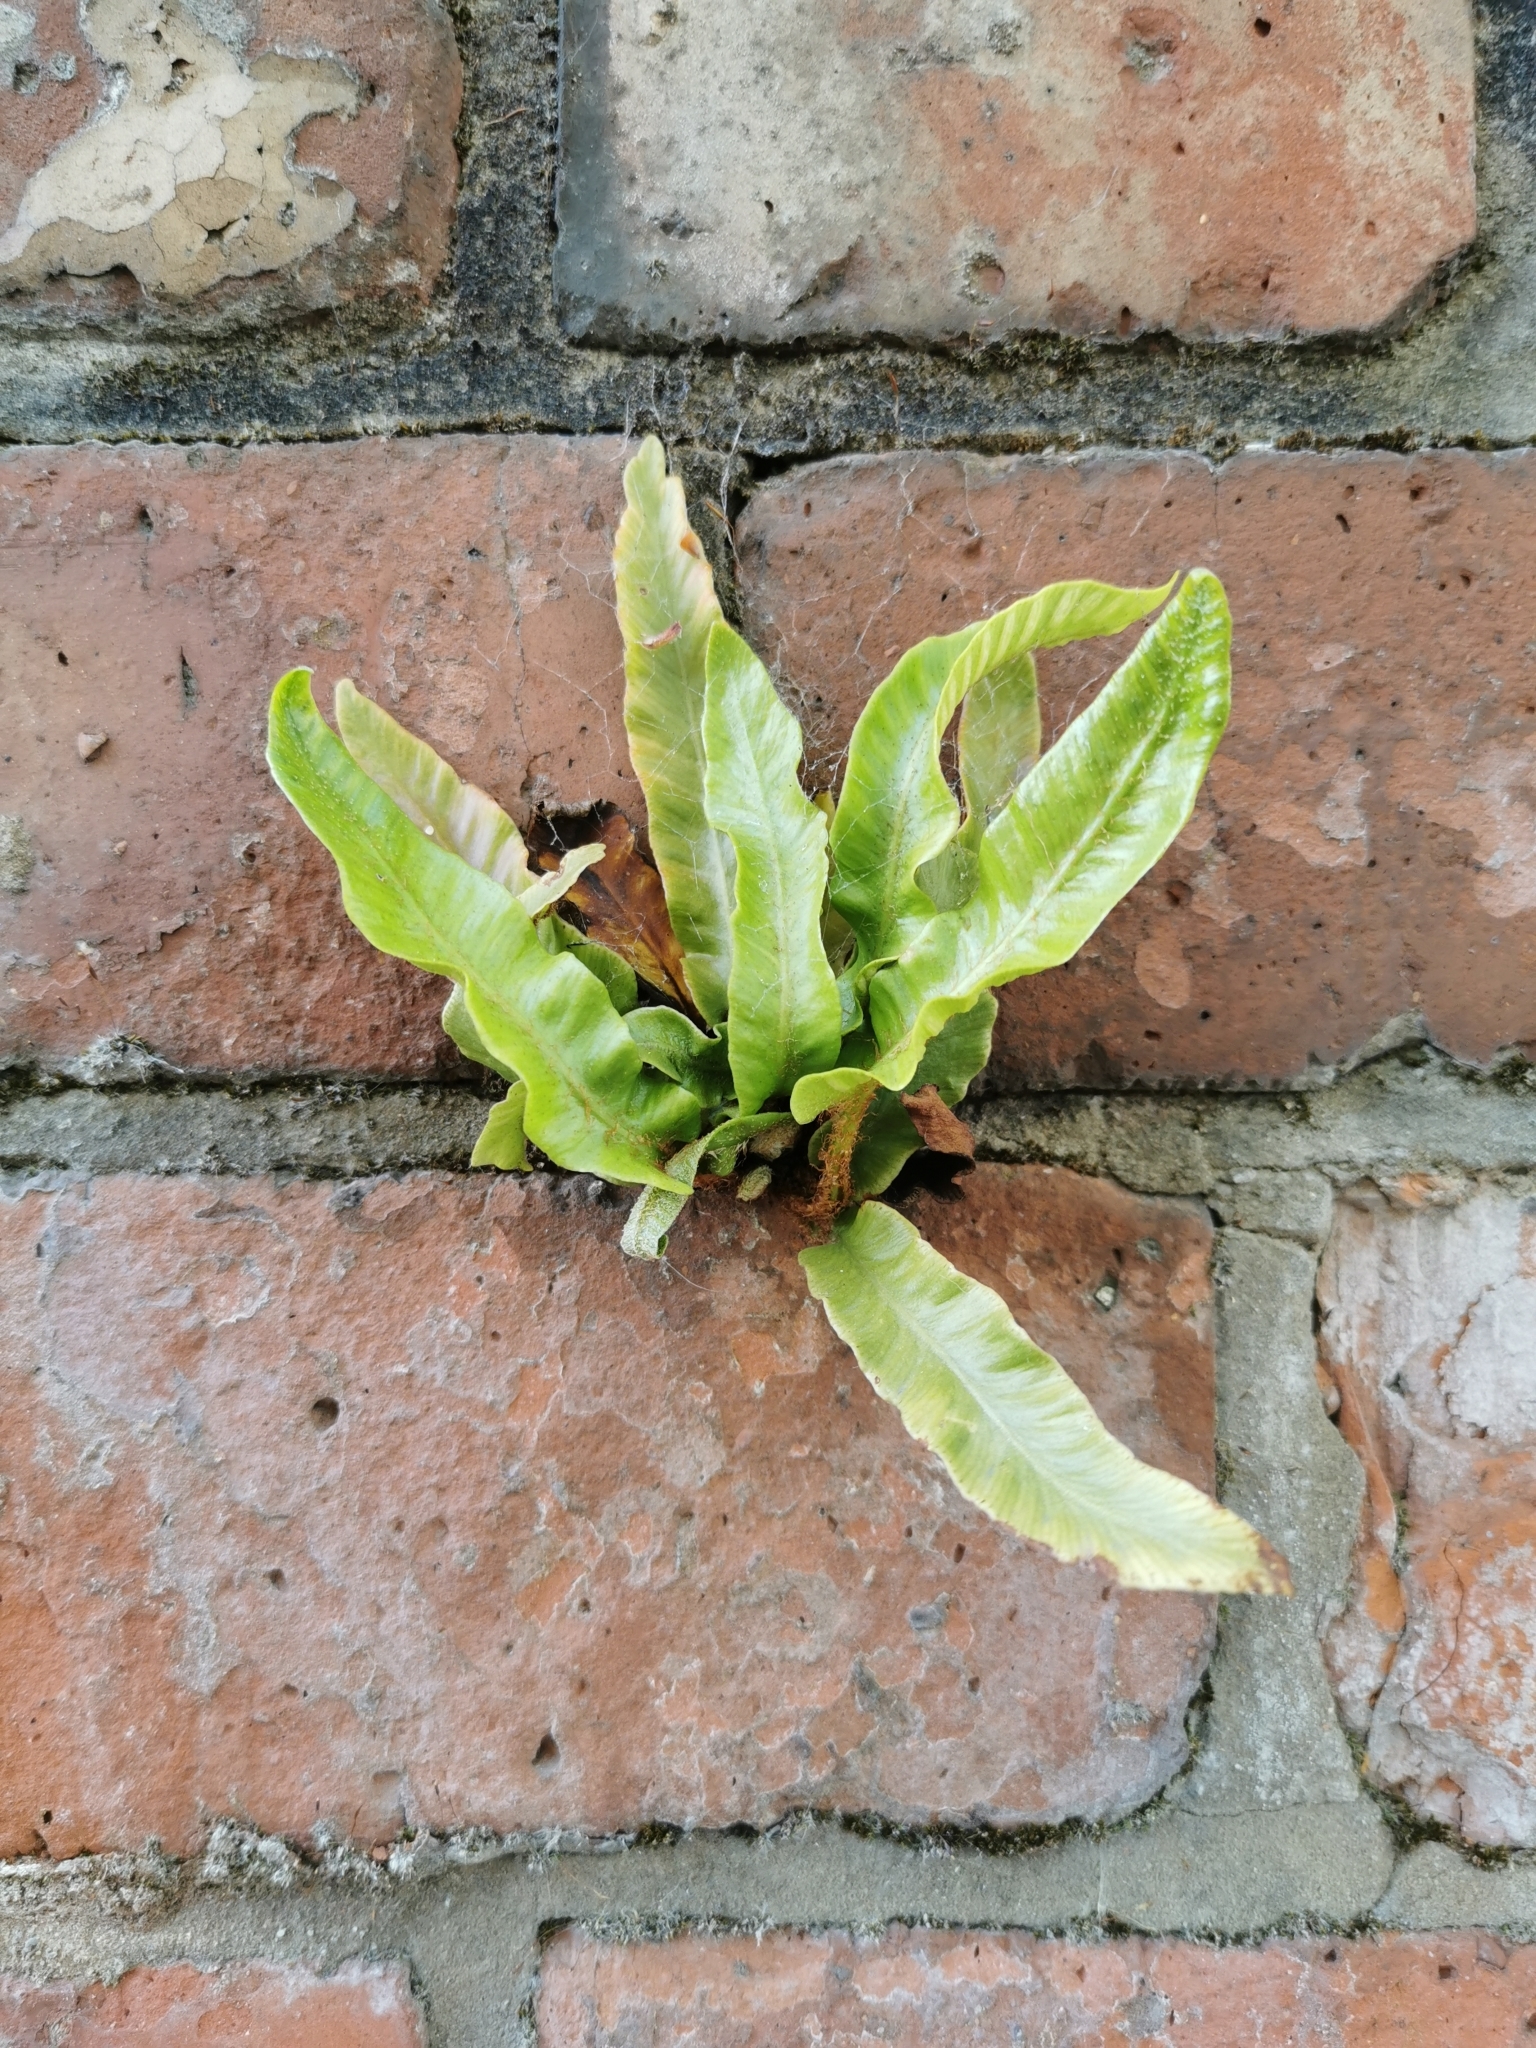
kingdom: Plantae
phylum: Tracheophyta
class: Polypodiopsida
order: Polypodiales
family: Aspleniaceae
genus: Asplenium
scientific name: Asplenium scolopendrium
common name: Hart's-tongue fern
